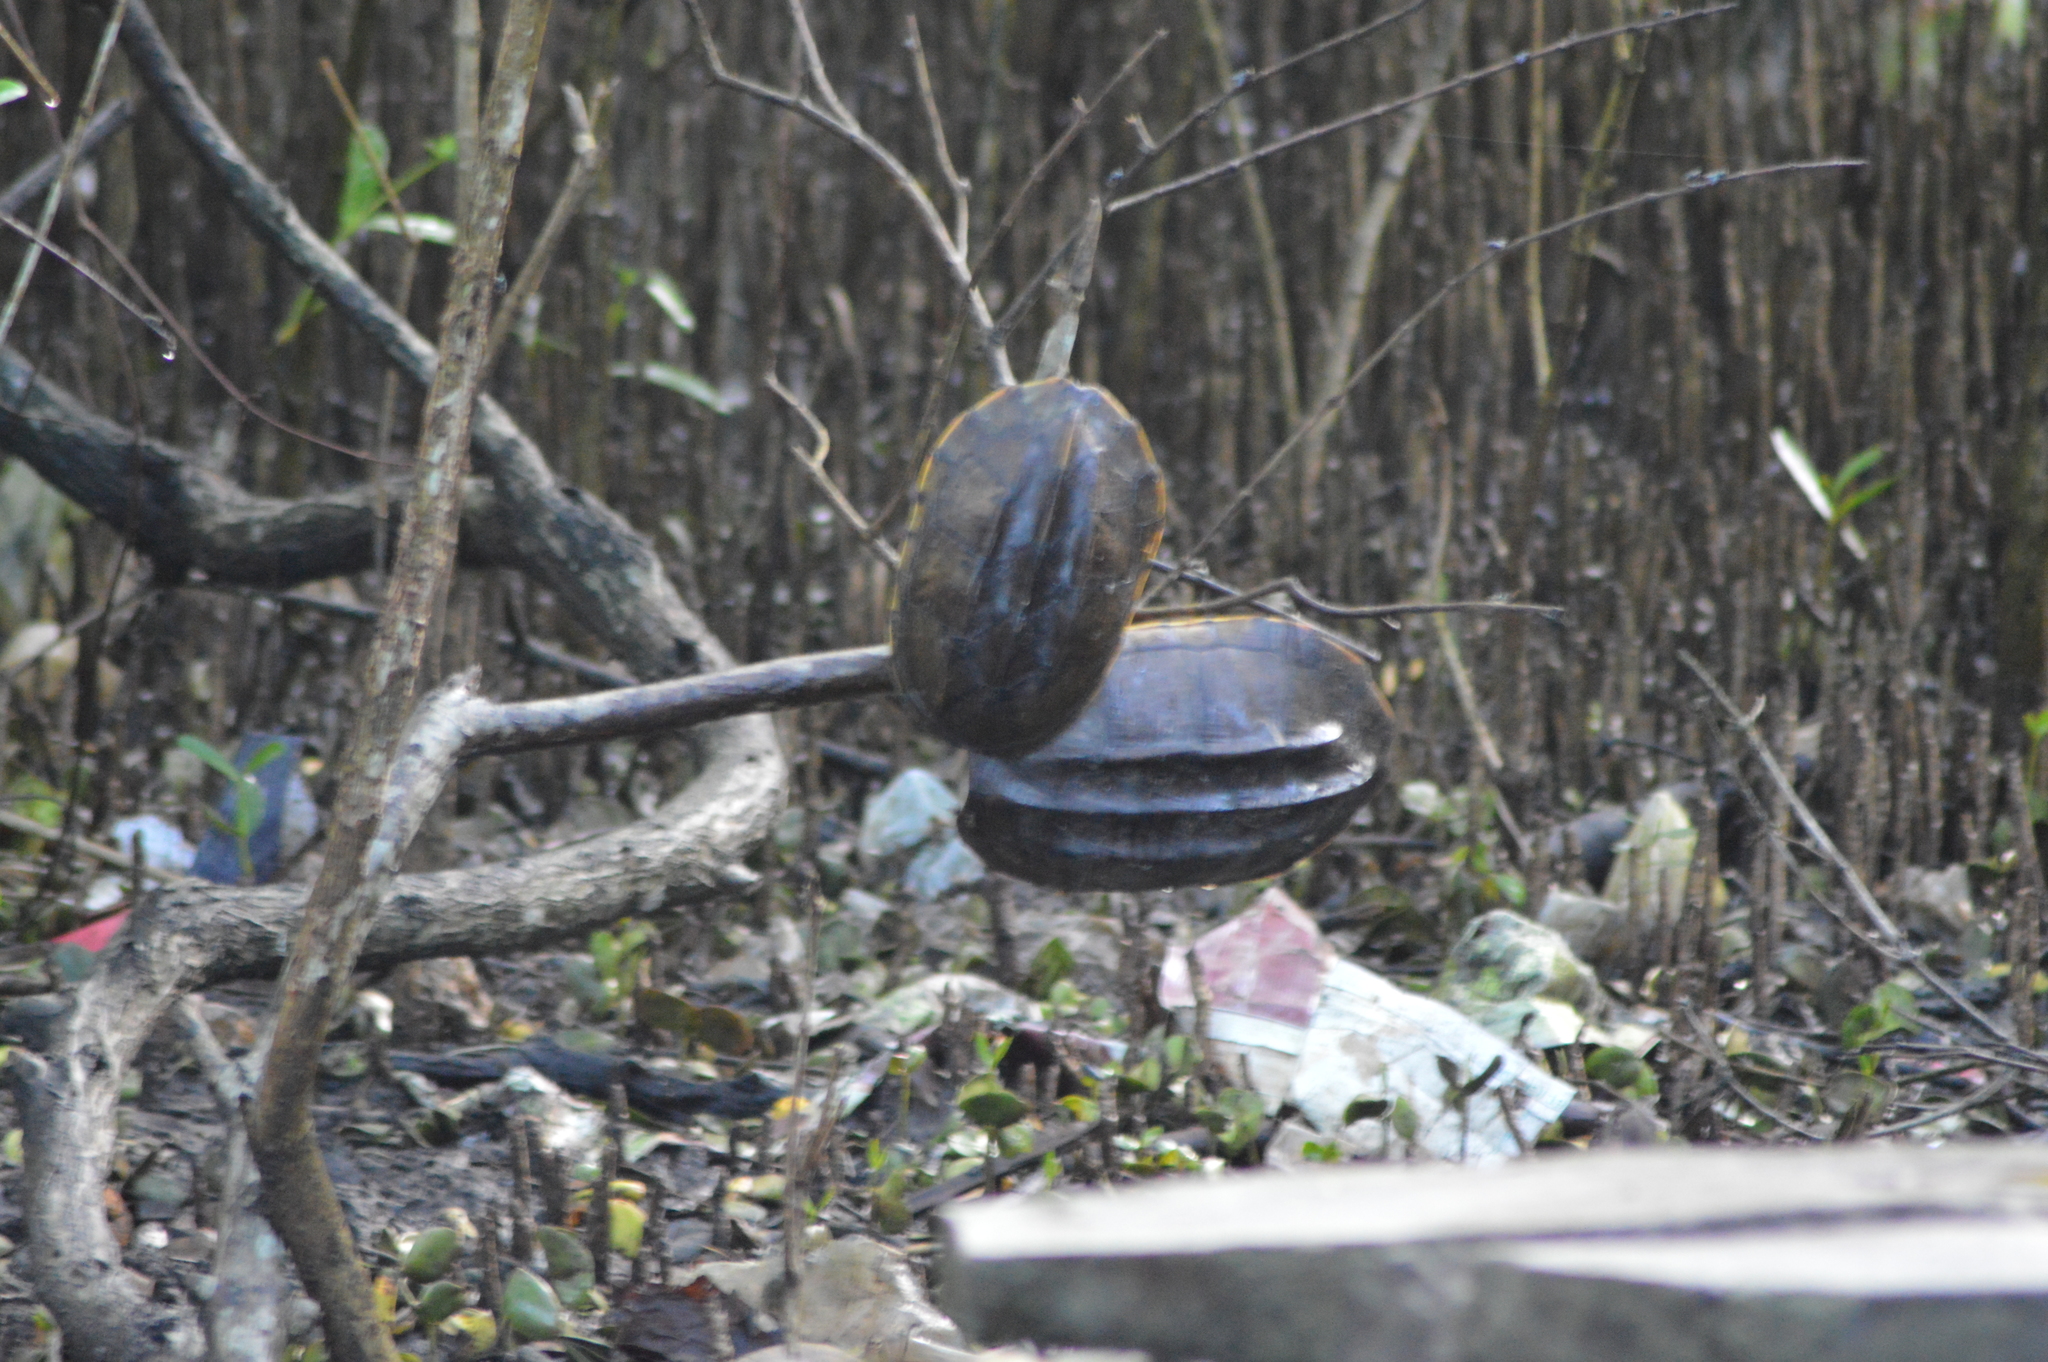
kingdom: Animalia
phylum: Chordata
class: Testudines
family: Kinosternidae
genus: Staurotypus
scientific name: Staurotypus triporcatus
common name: Mexican giant musk turtle
